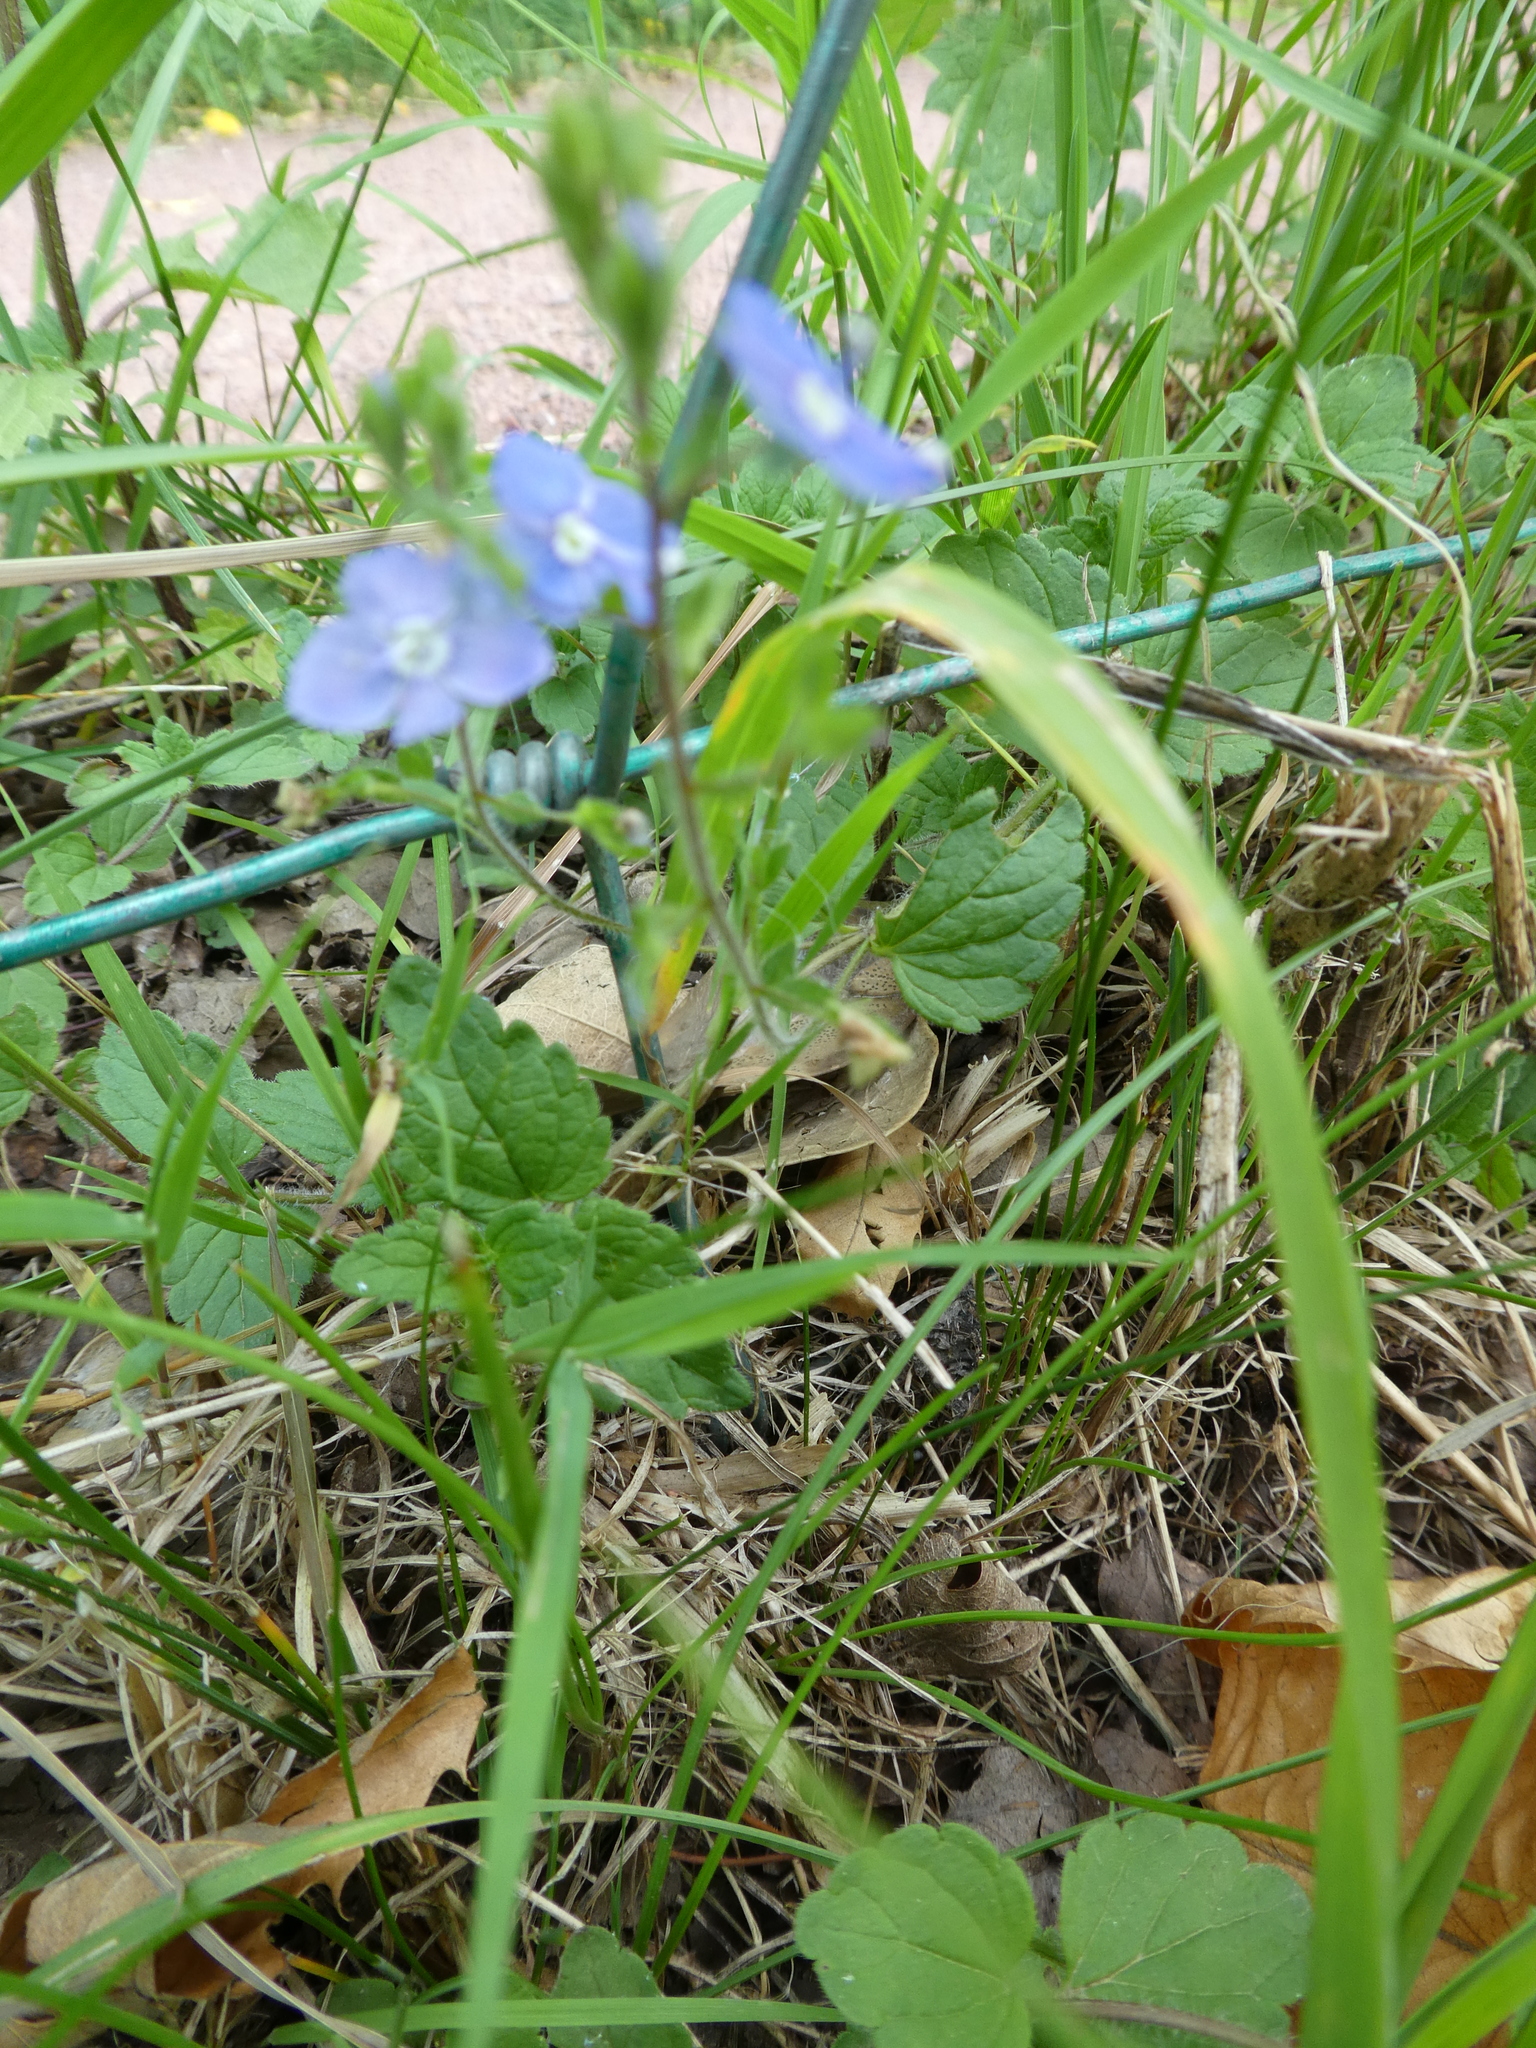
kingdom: Plantae
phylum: Tracheophyta
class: Magnoliopsida
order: Lamiales
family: Plantaginaceae
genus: Veronica
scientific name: Veronica chamaedrys
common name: Germander speedwell
